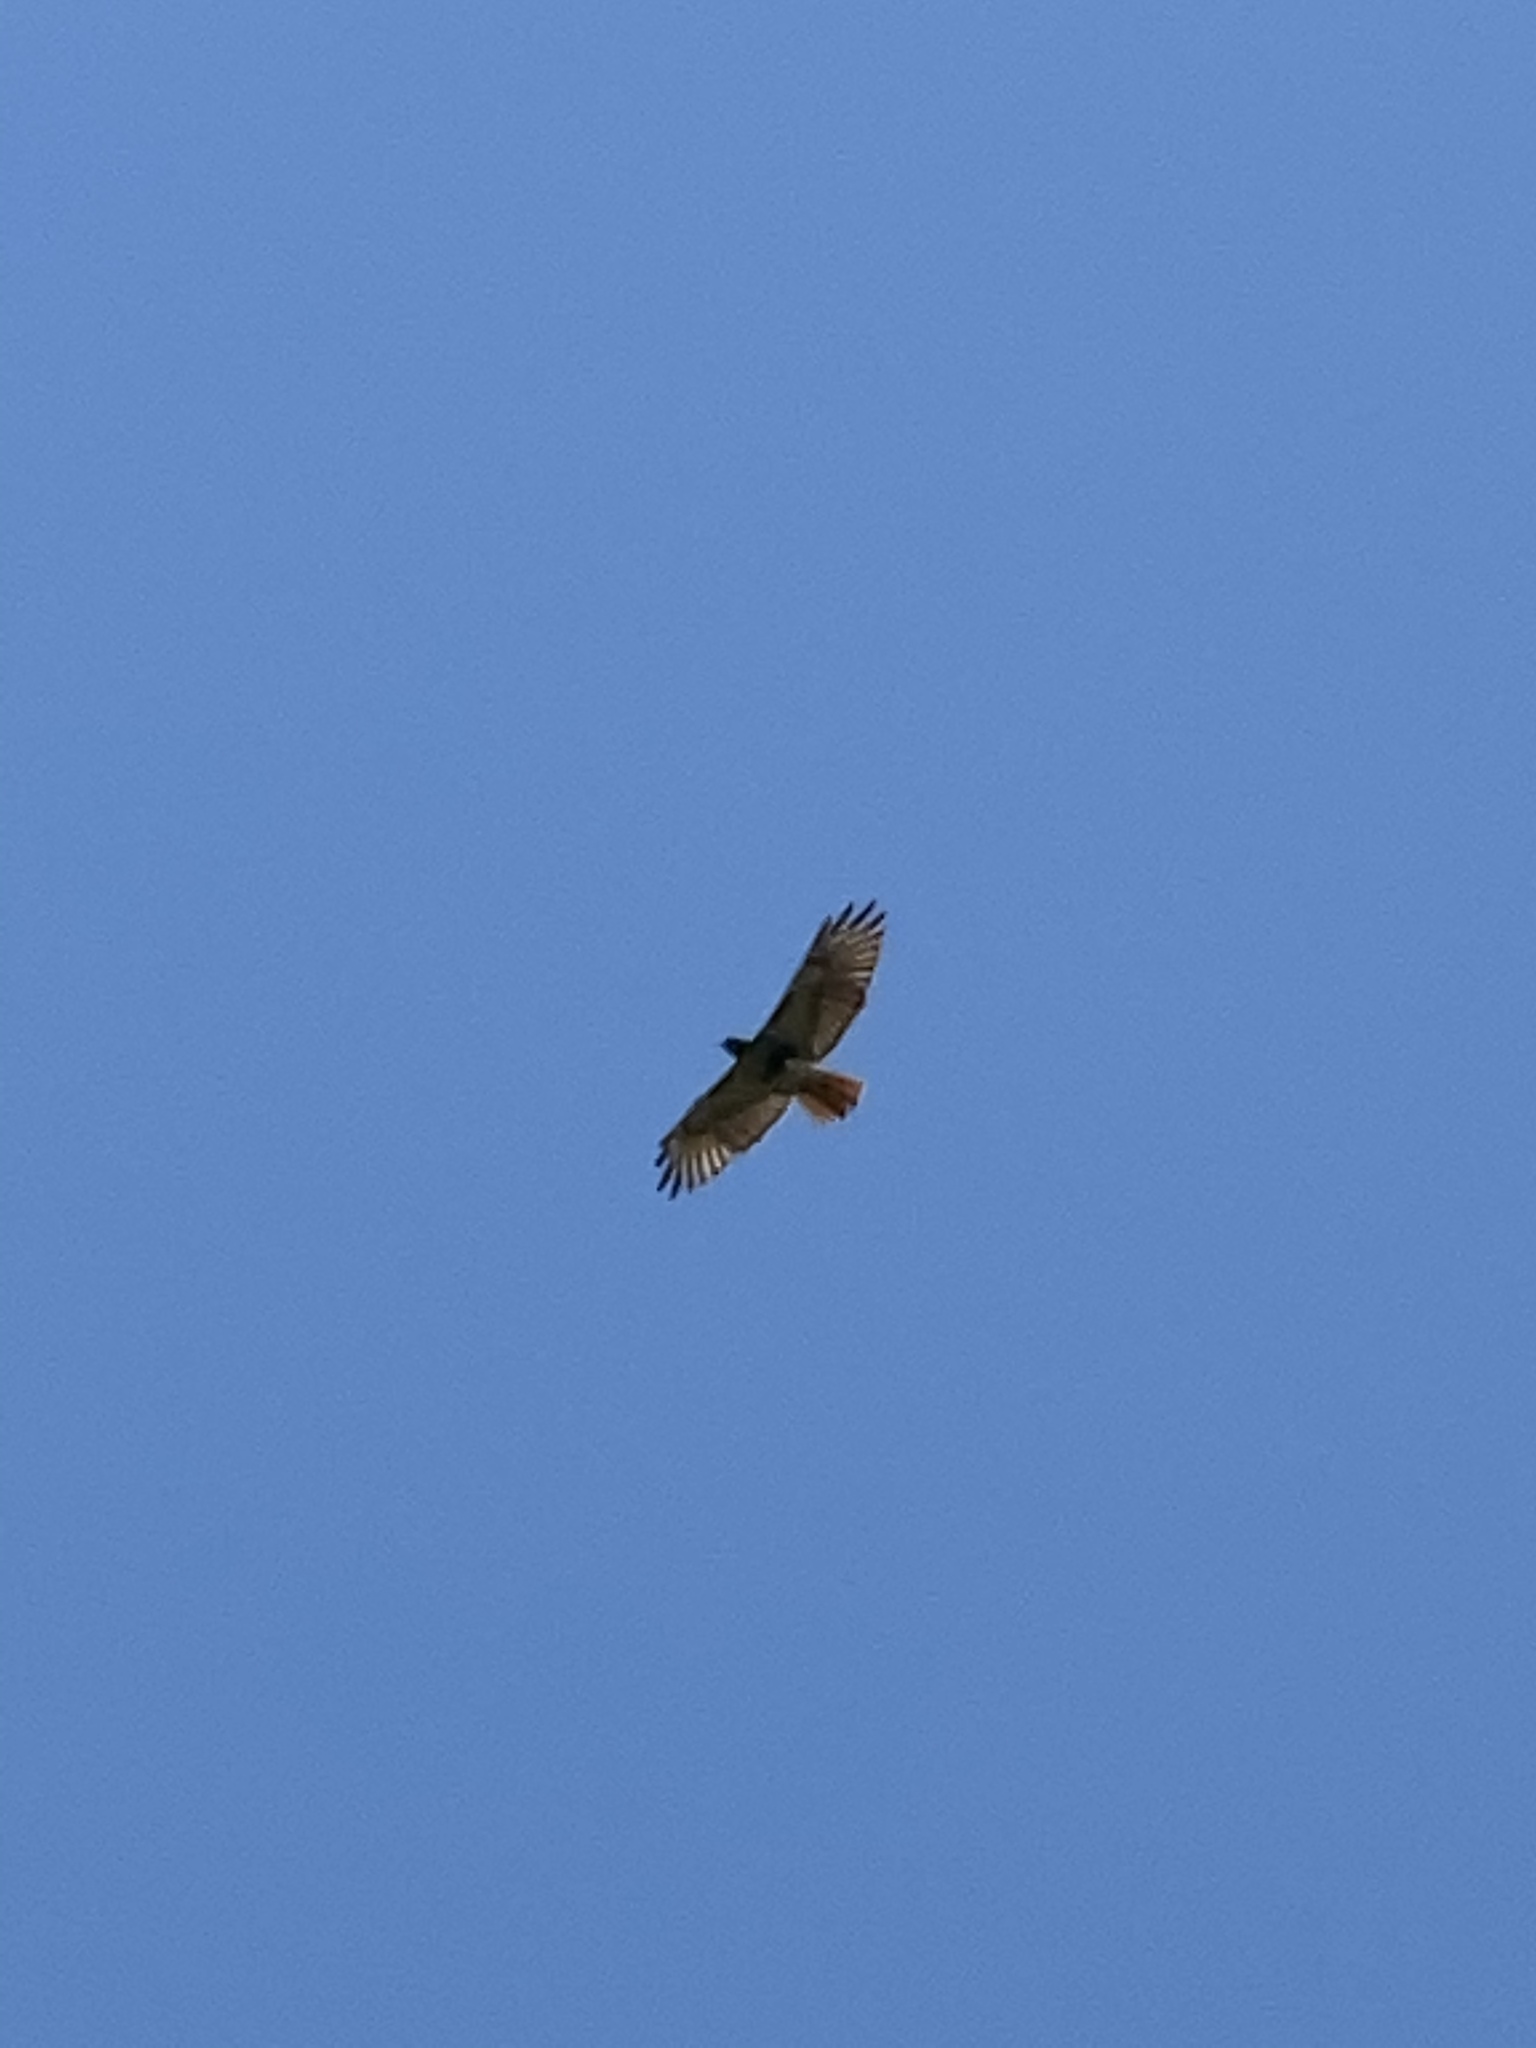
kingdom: Animalia
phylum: Chordata
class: Aves
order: Accipitriformes
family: Accipitridae
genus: Buteo
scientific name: Buteo jamaicensis
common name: Red-tailed hawk
